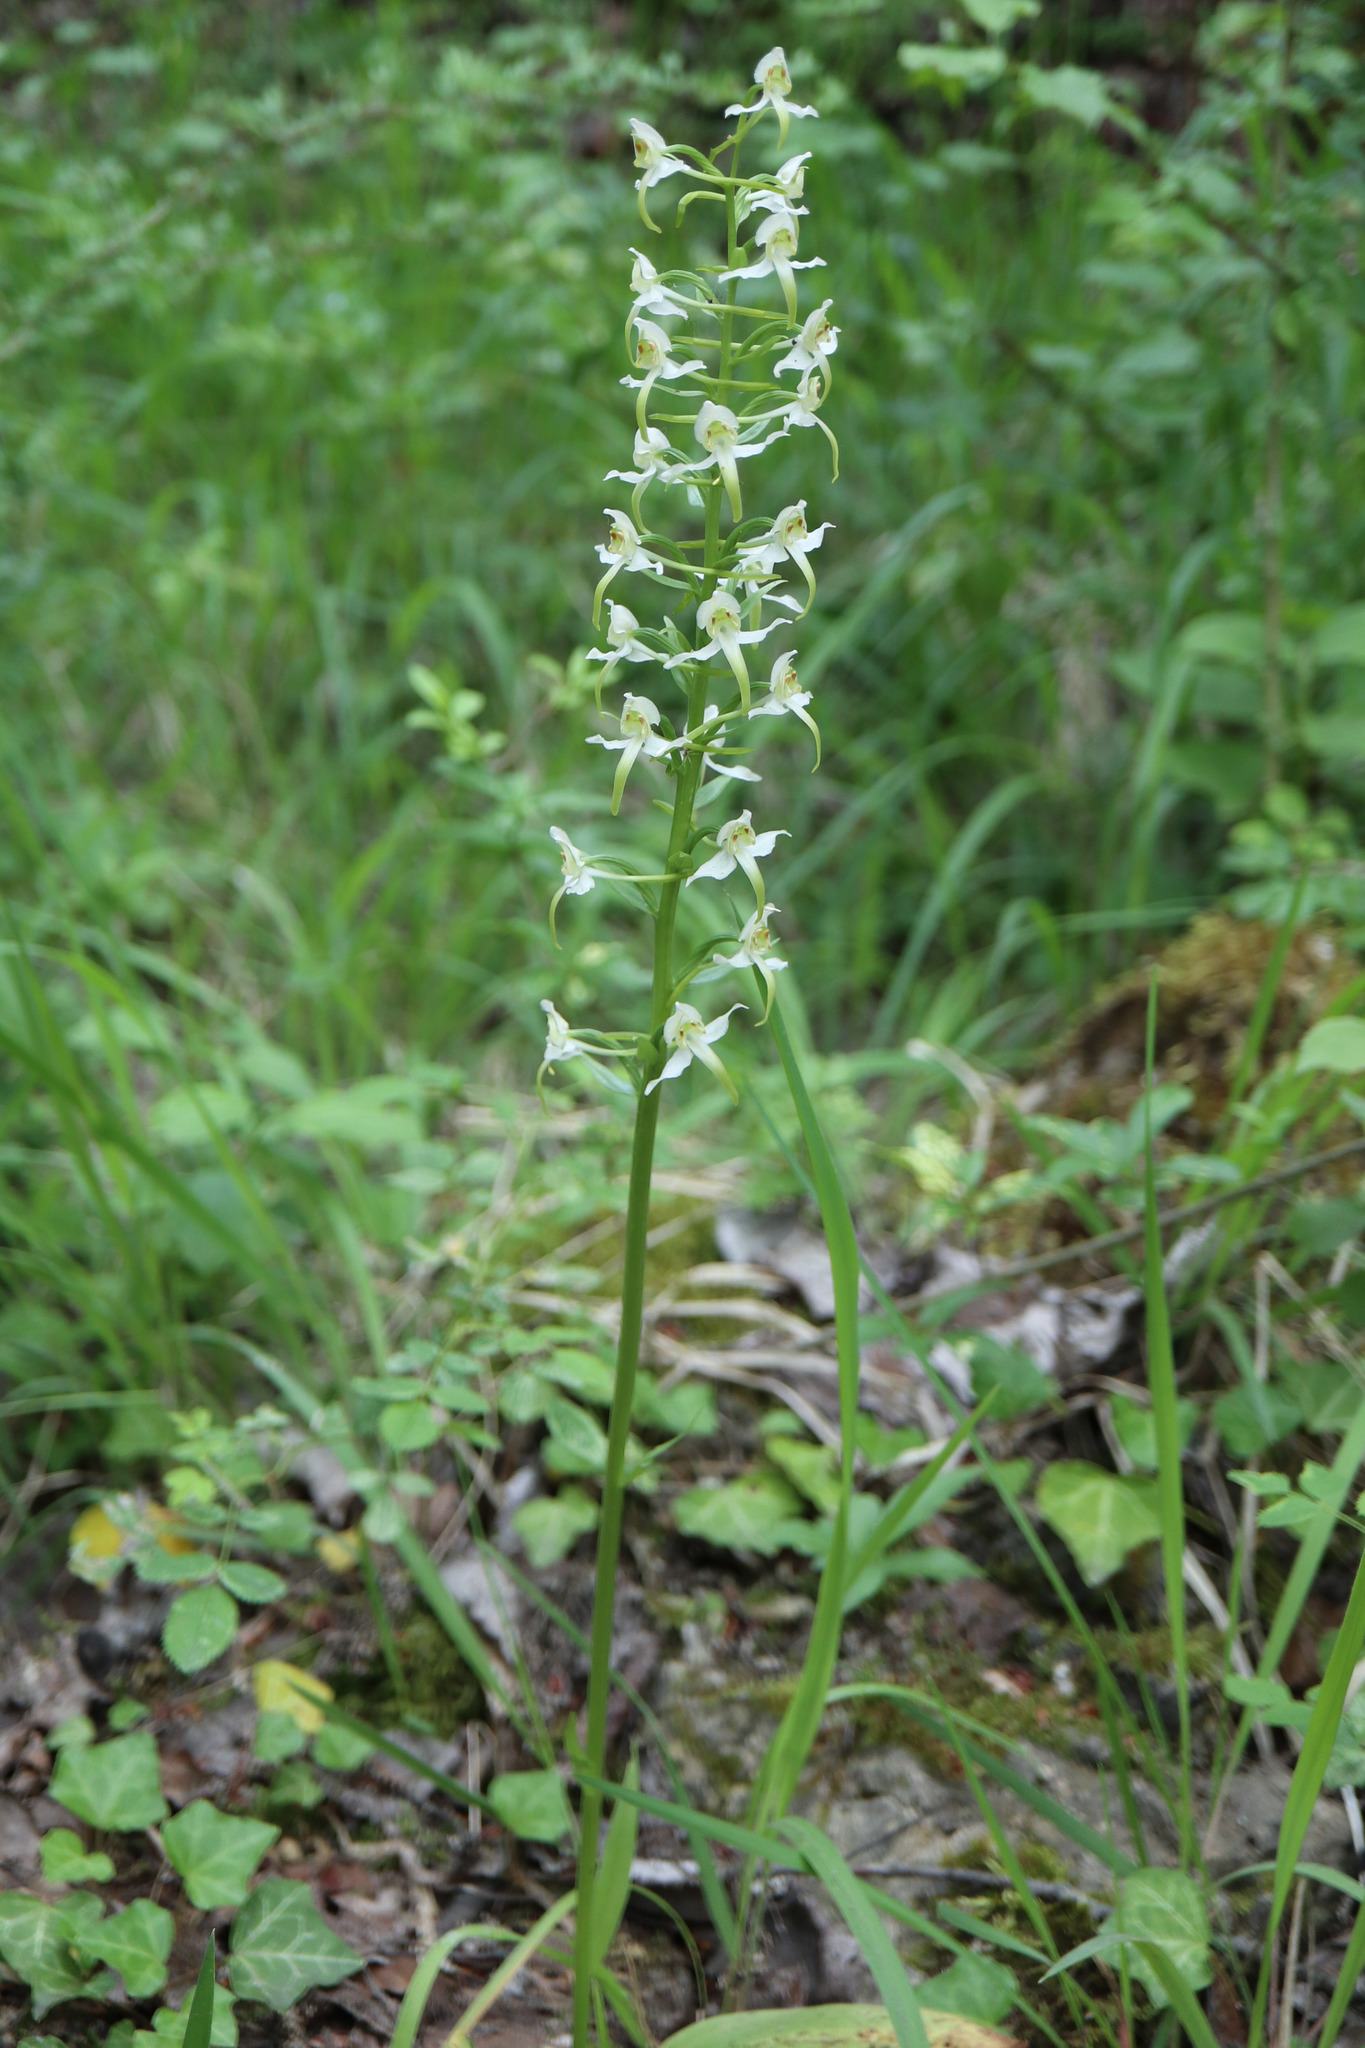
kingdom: Plantae
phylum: Tracheophyta
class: Liliopsida
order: Asparagales
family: Orchidaceae
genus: Platanthera
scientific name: Platanthera chlorantha
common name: Greater butterfly-orchid
